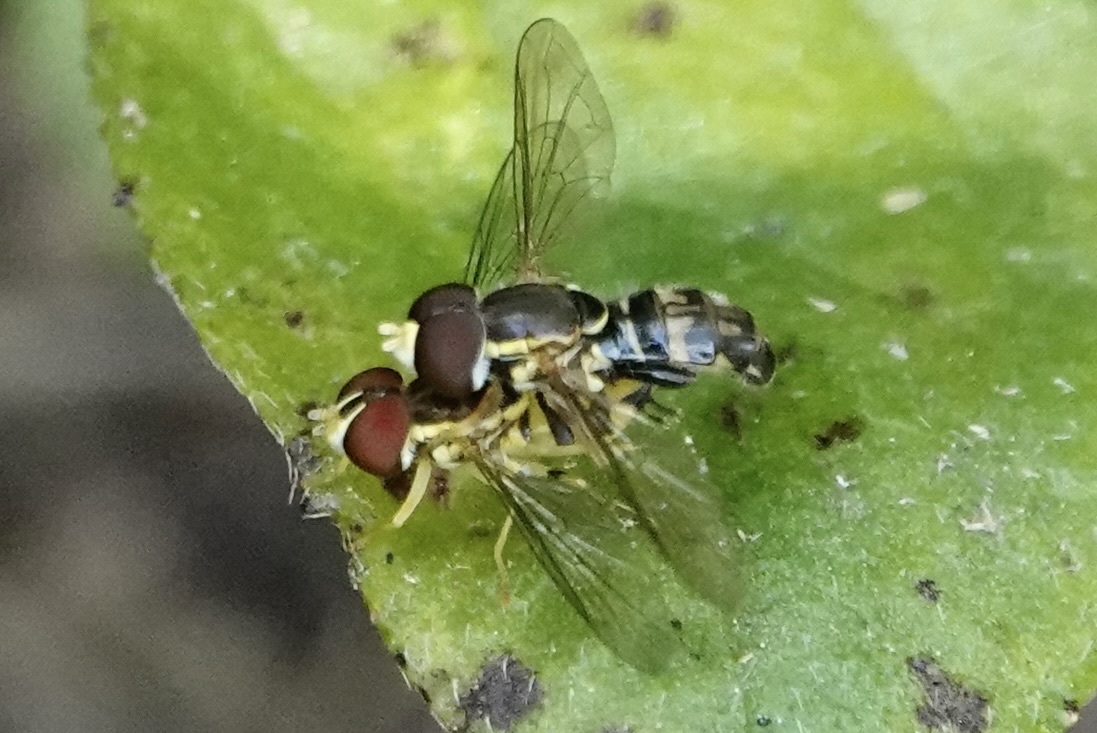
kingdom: Animalia
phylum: Arthropoda
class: Insecta
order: Diptera
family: Syrphidae
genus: Toxomerus
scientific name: Toxomerus geminatus
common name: Eastern calligrapher
